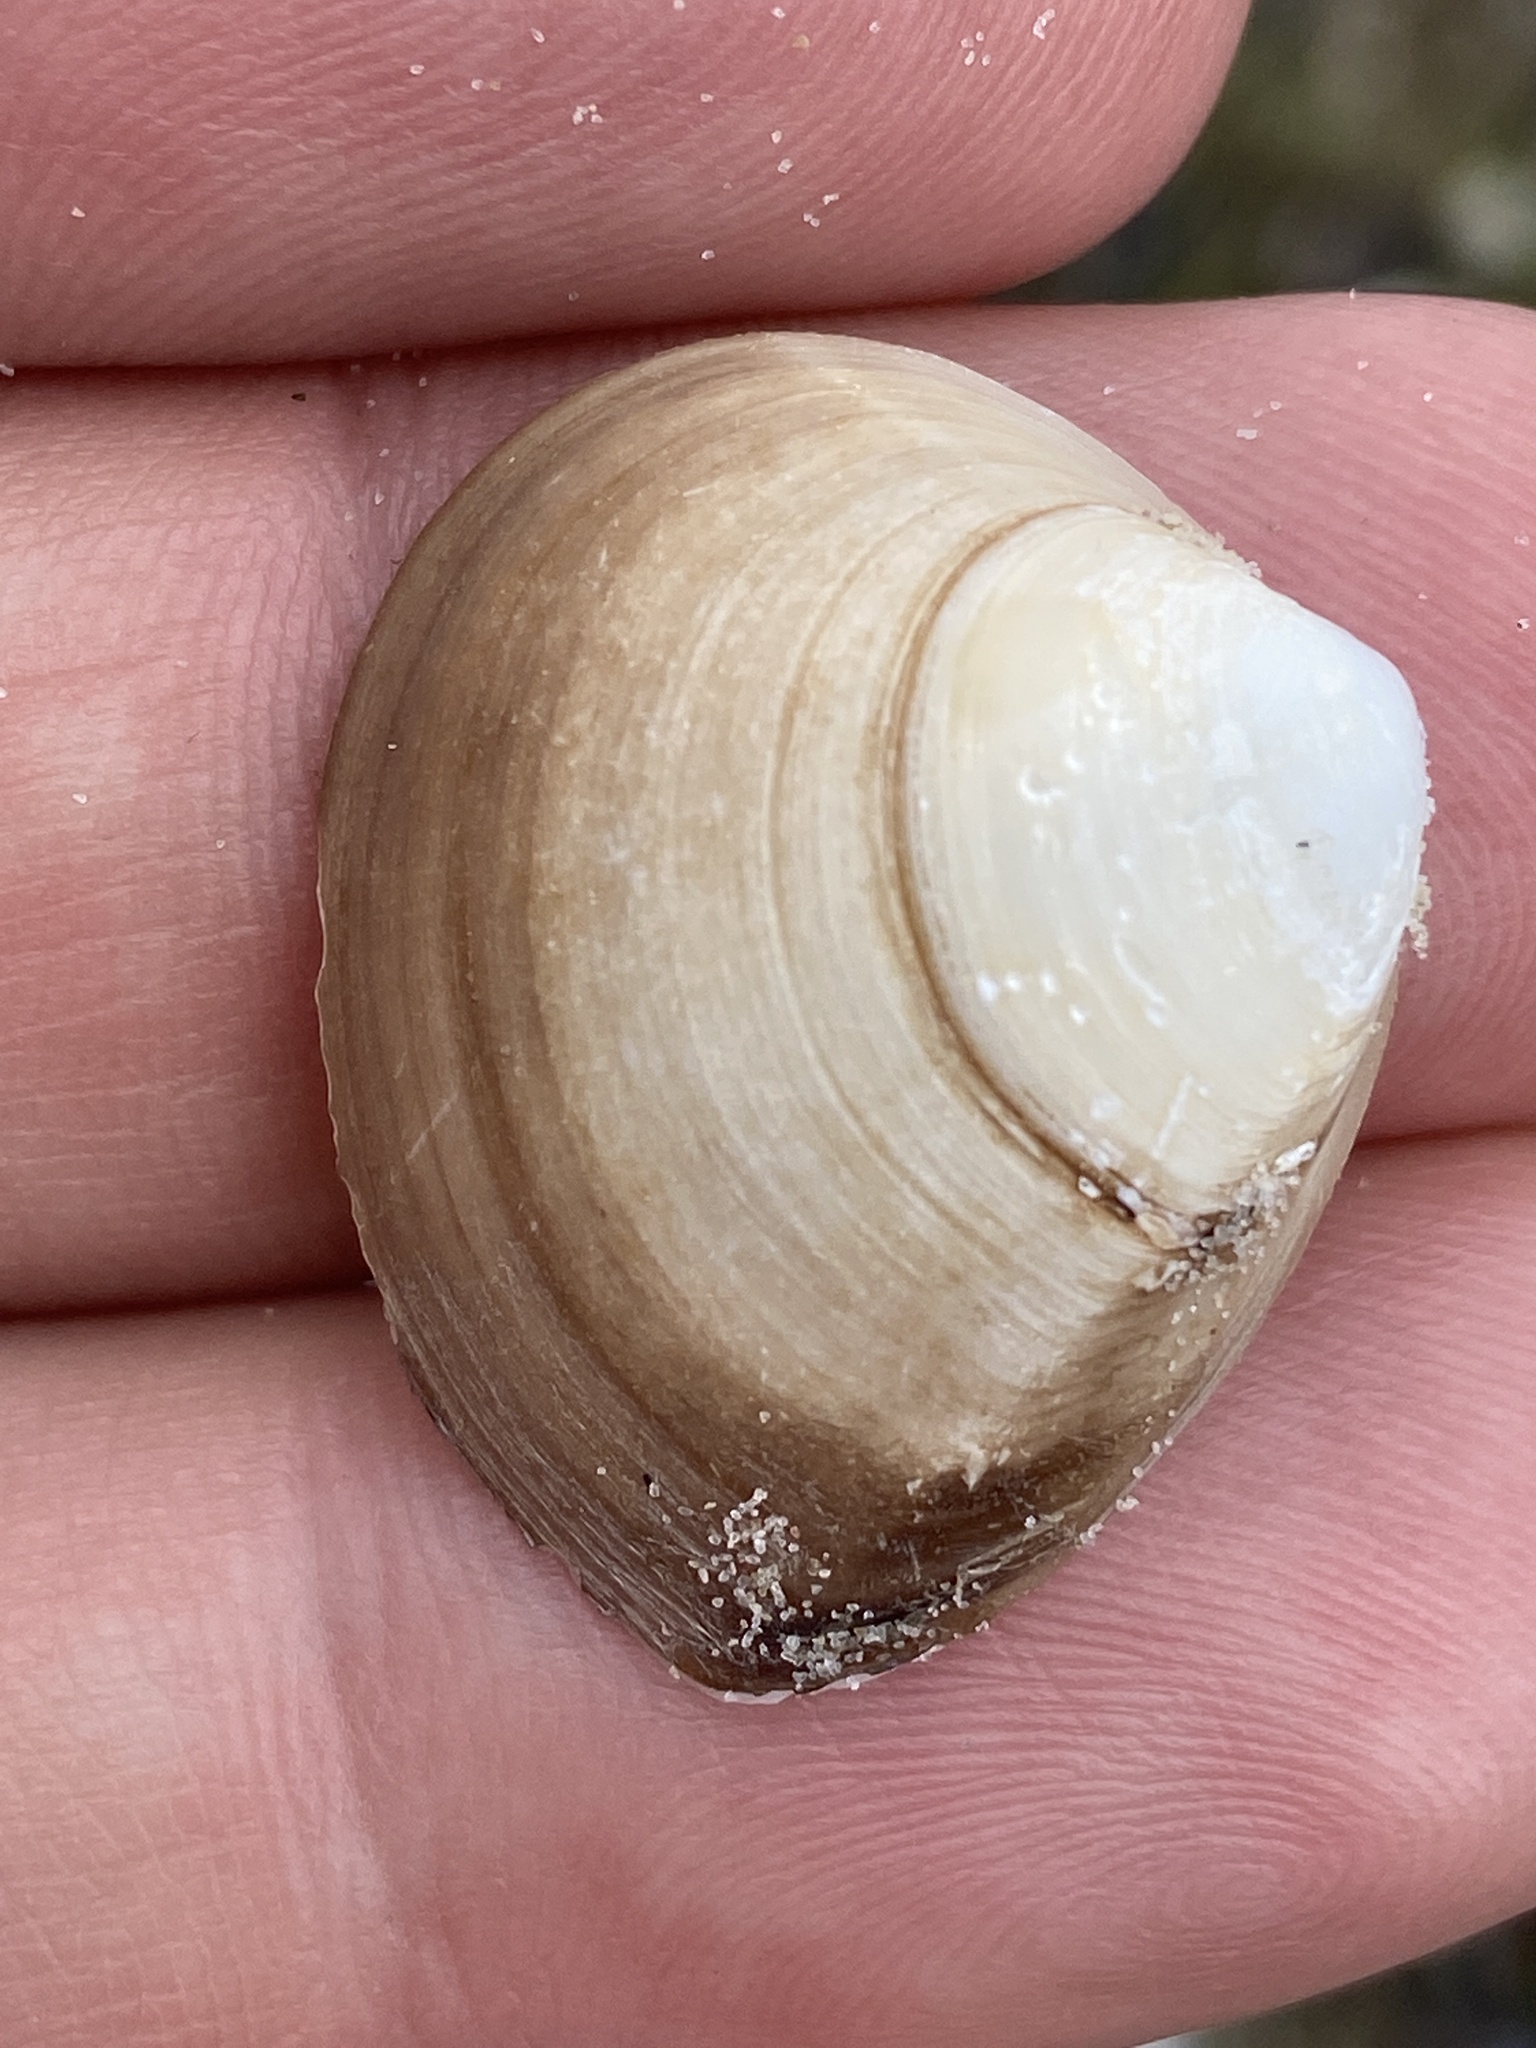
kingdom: Animalia
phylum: Mollusca
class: Bivalvia
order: Venerida
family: Mactridae
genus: Rangia
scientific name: Rangia cuneata
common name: Atlantic rangia
